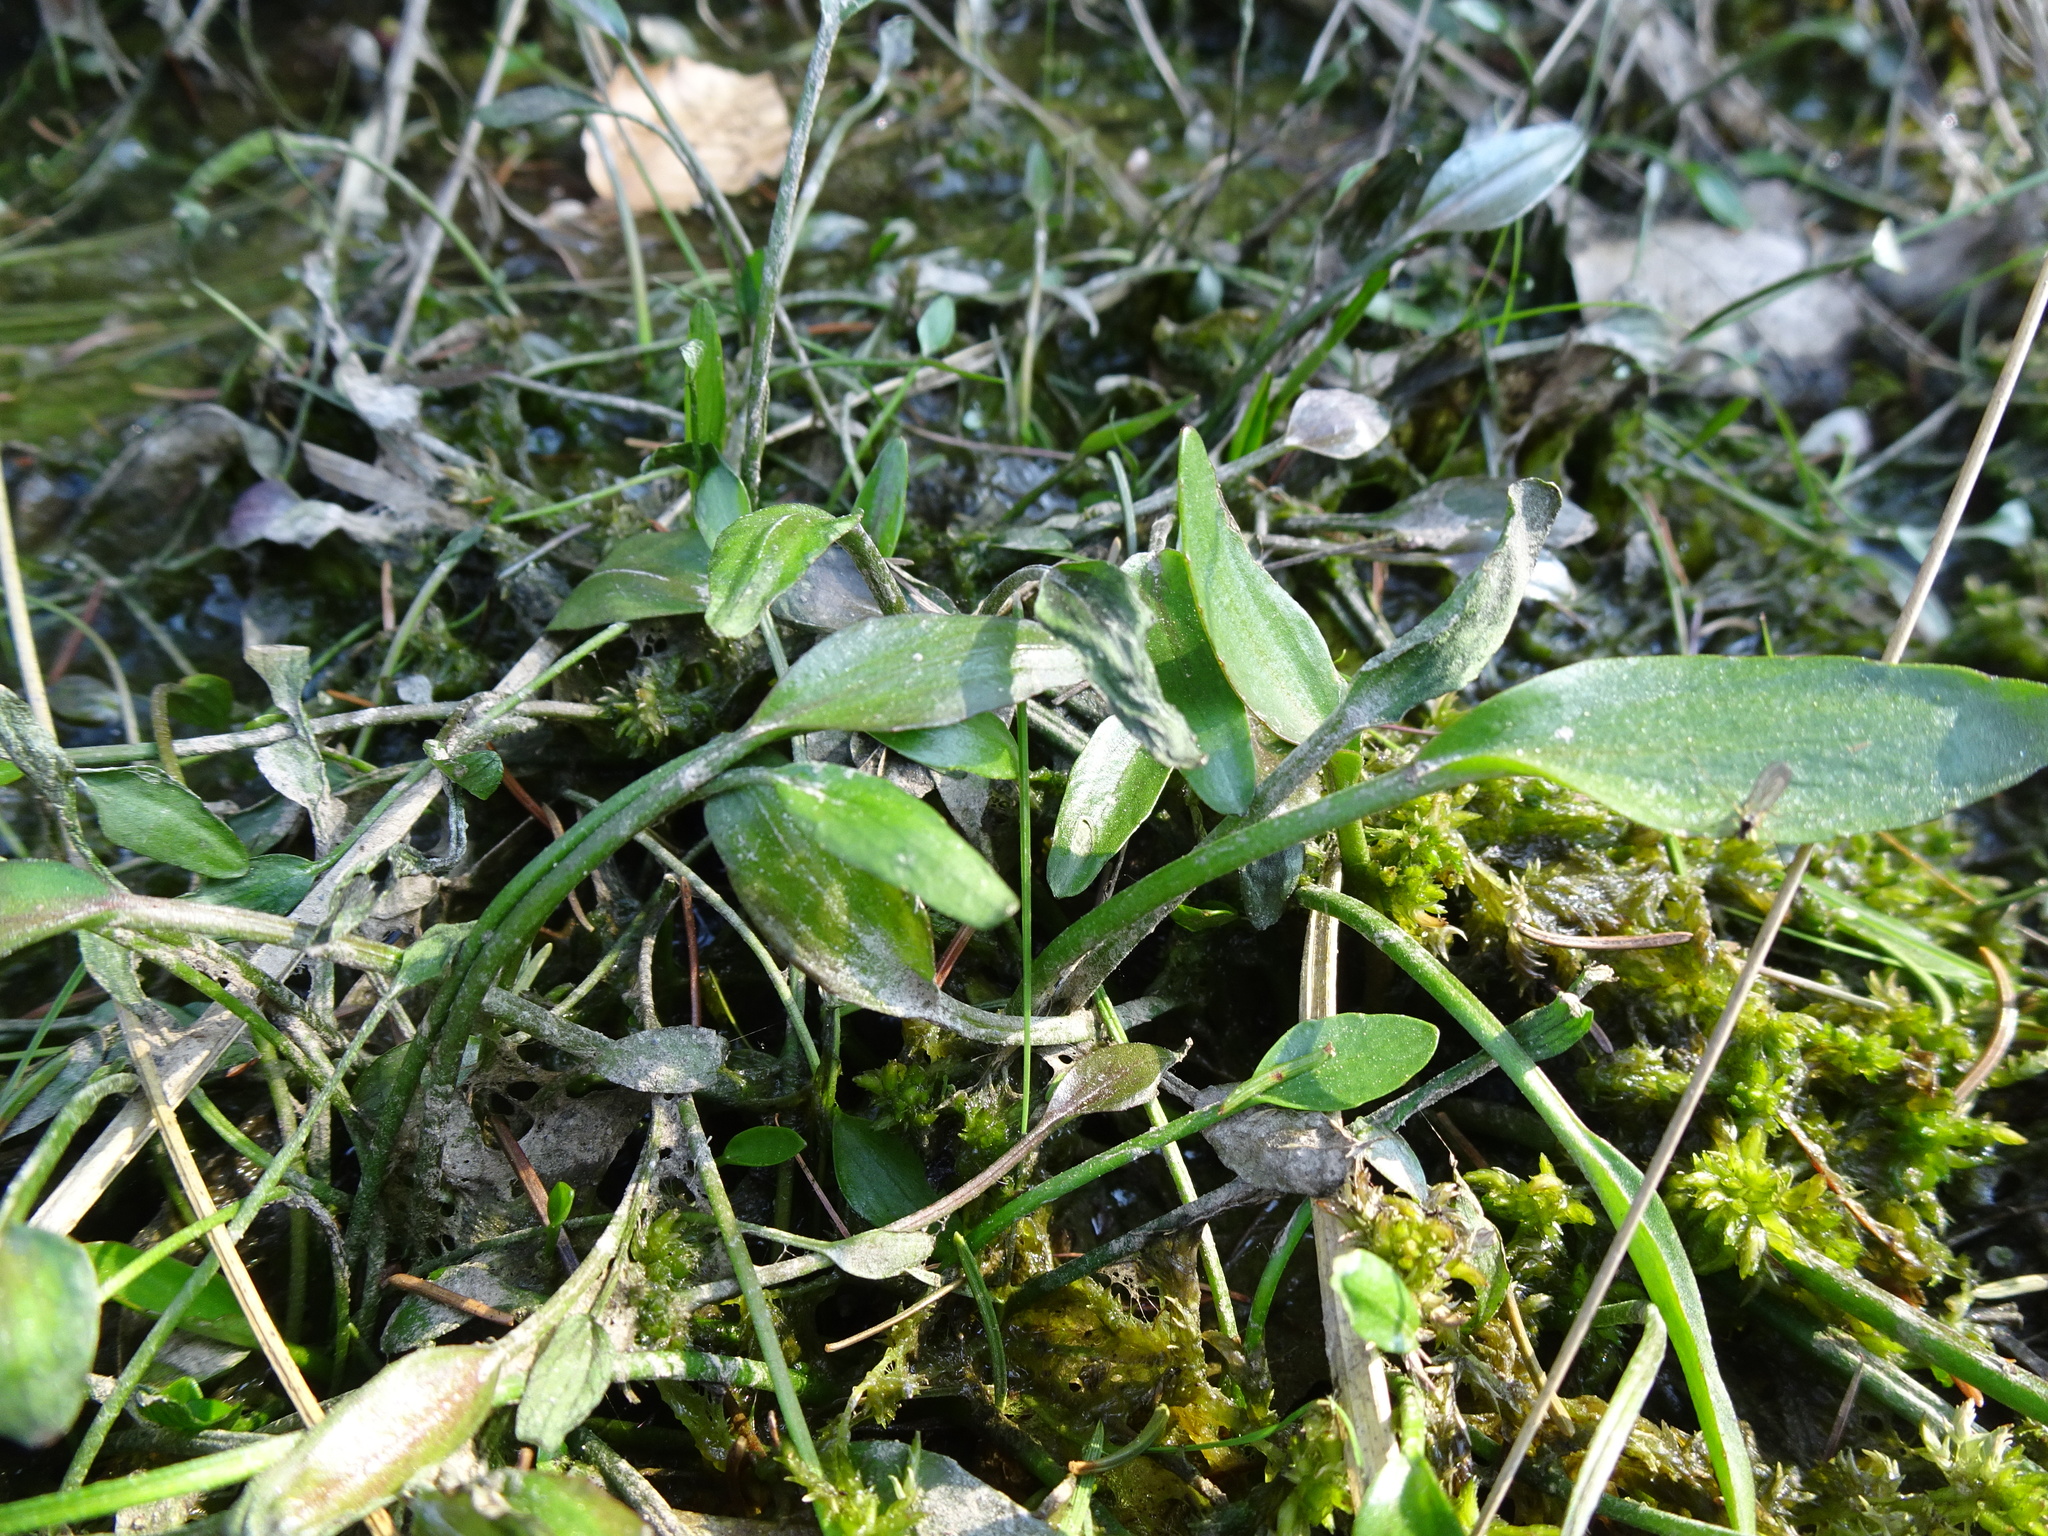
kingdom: Plantae
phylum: Tracheophyta
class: Magnoliopsida
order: Ranunculales
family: Ranunculaceae
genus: Ranunculus
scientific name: Ranunculus flammula
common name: Lesser spearwort
